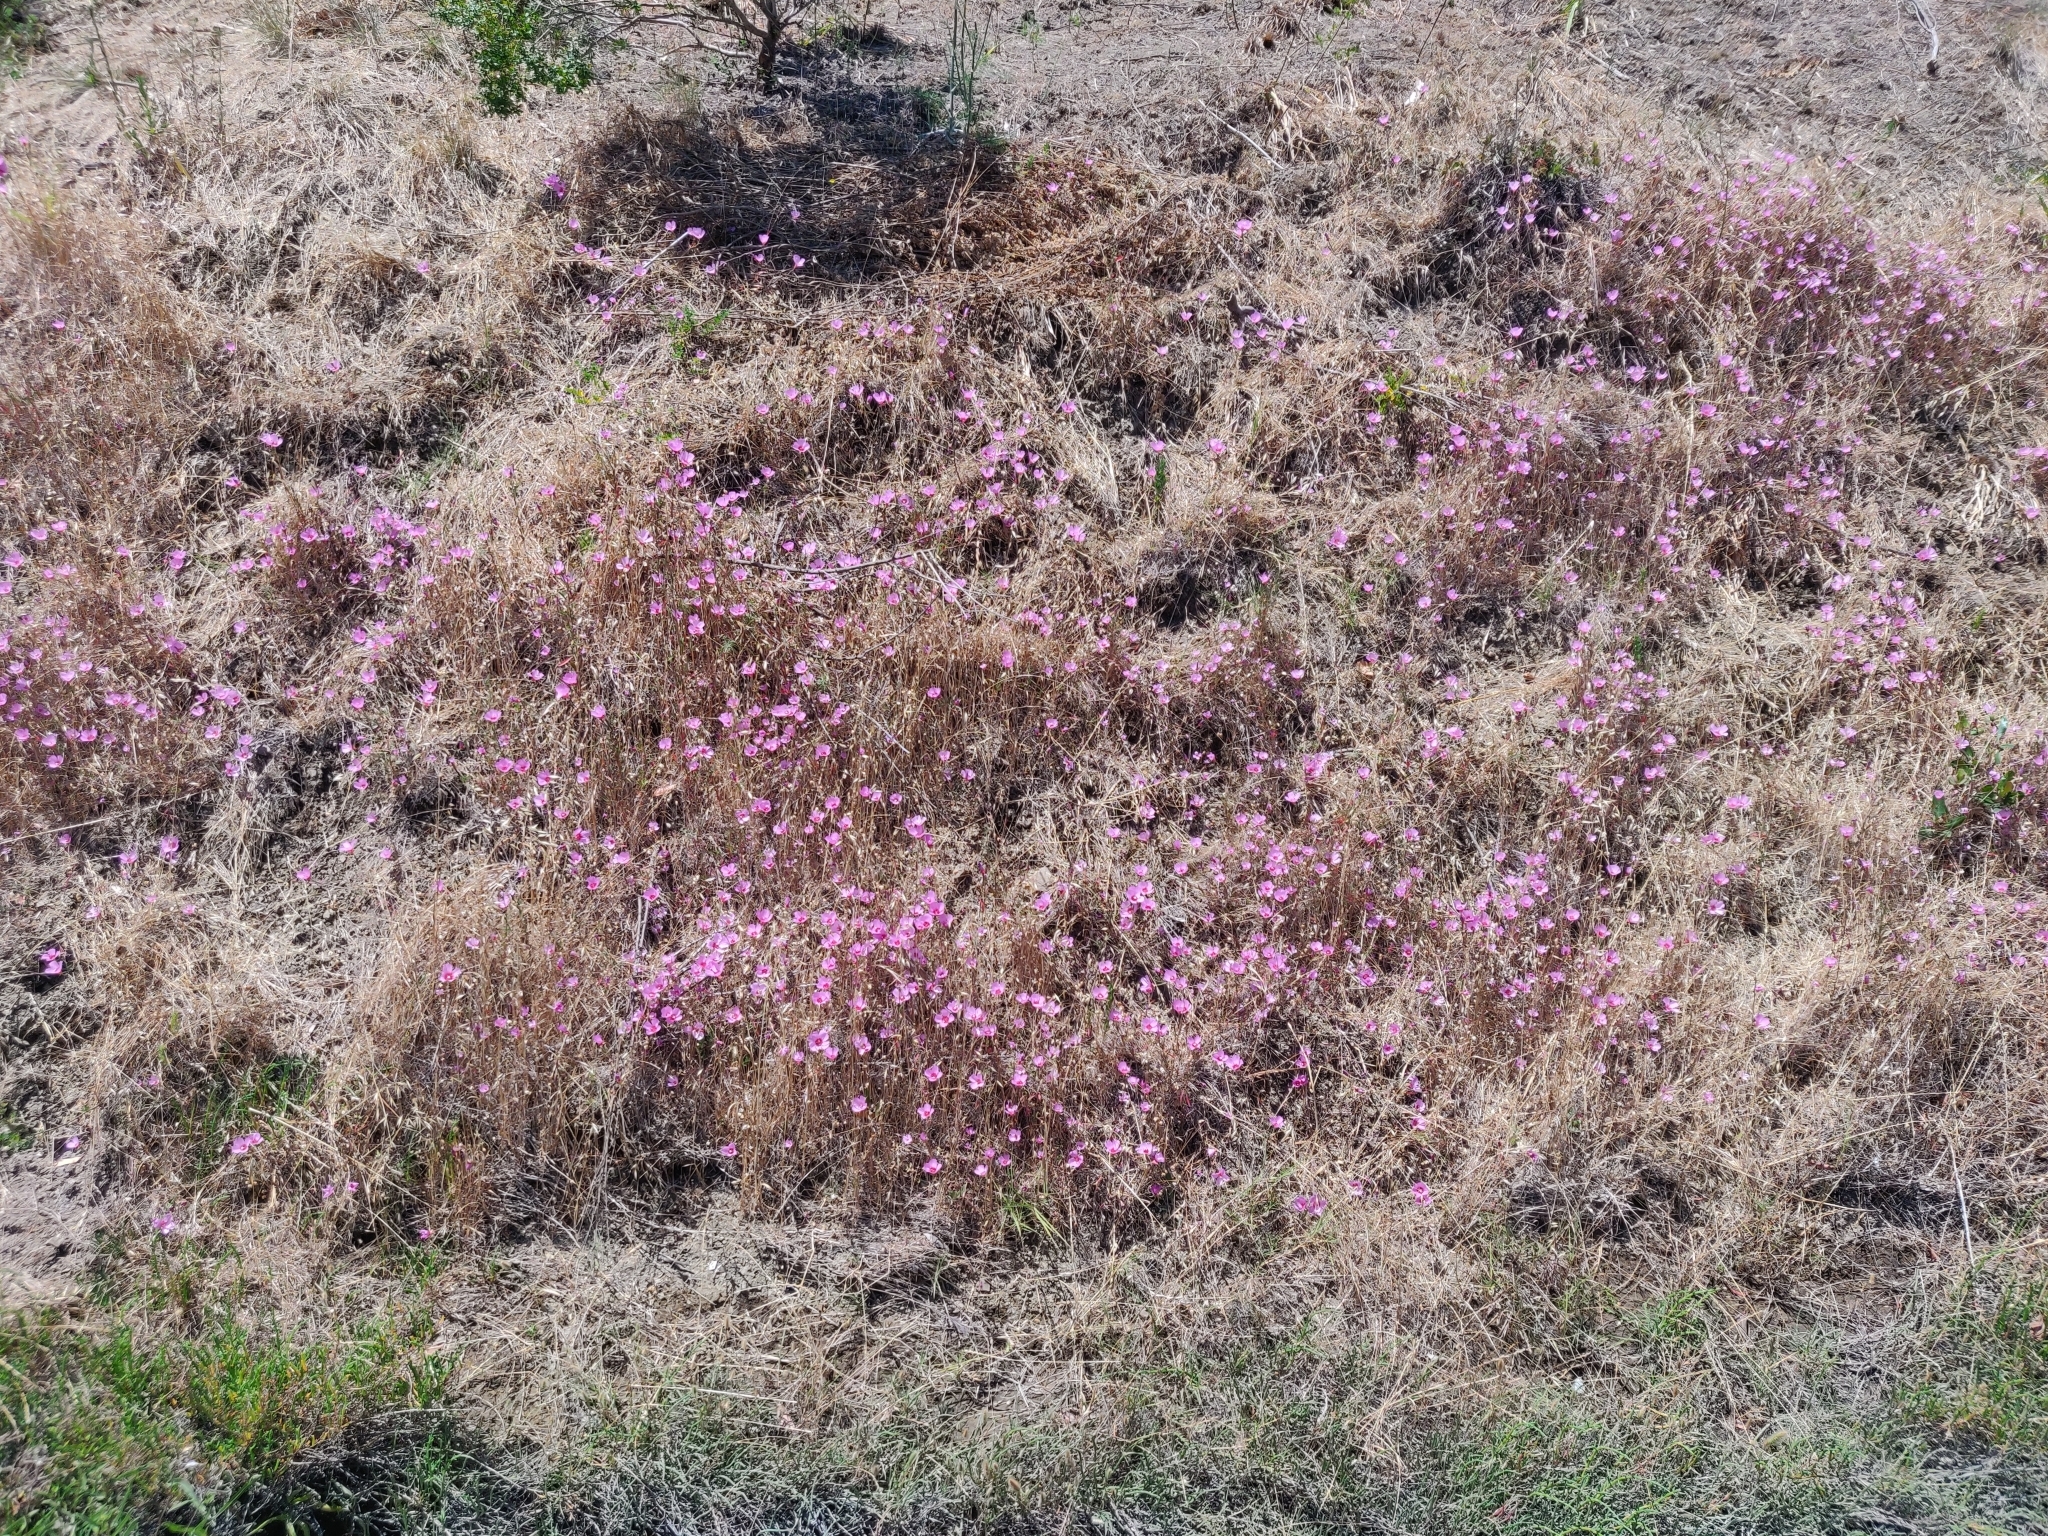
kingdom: Plantae
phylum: Tracheophyta
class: Magnoliopsida
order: Myrtales
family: Onagraceae
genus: Clarkia
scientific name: Clarkia rubicunda
